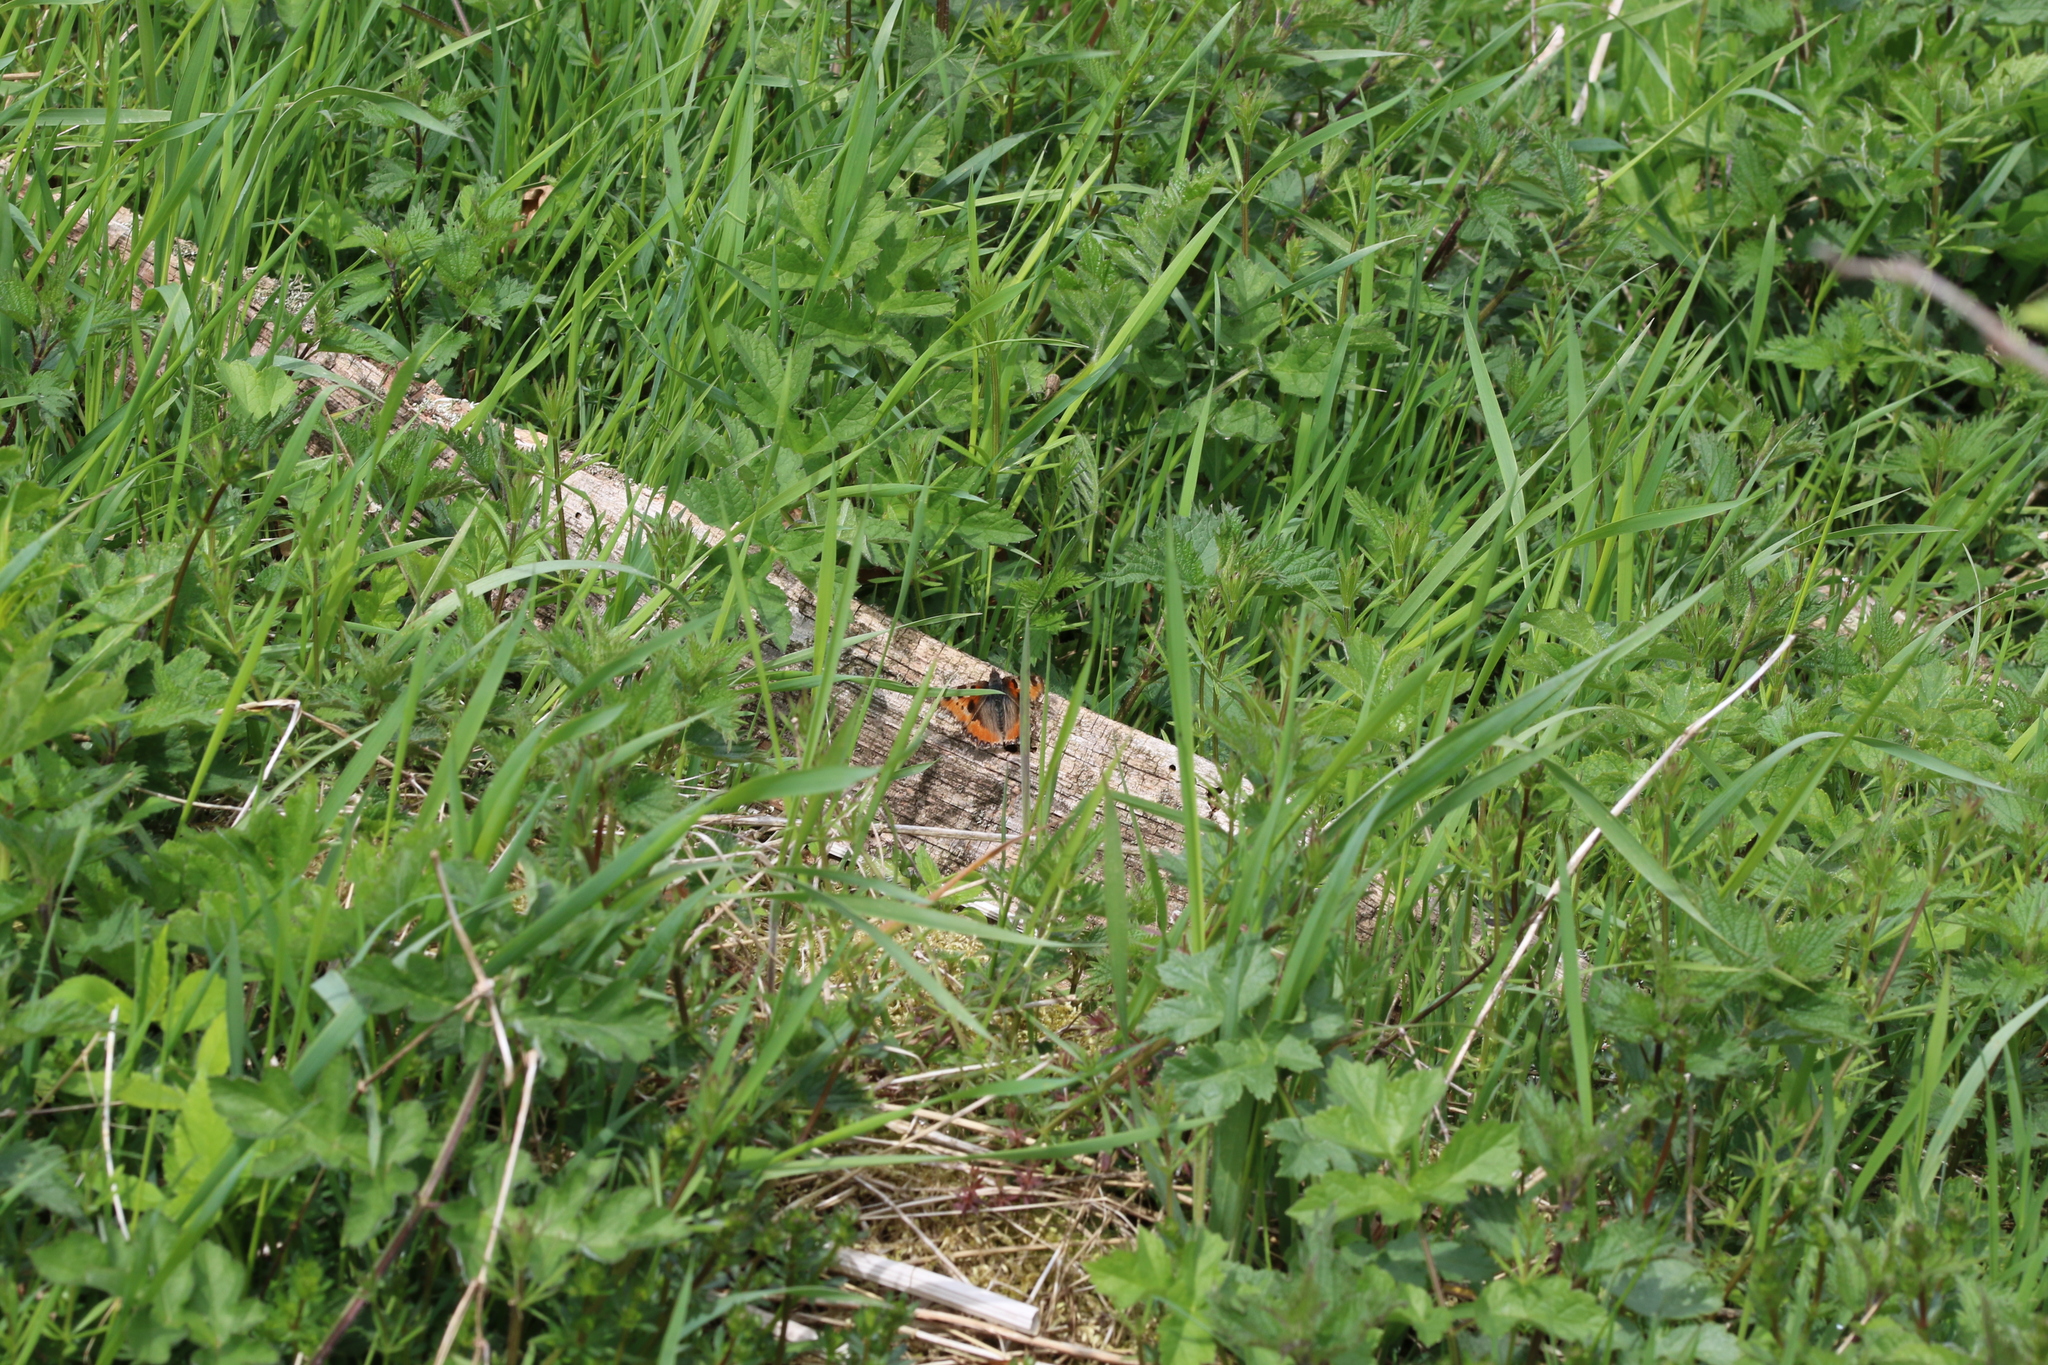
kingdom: Animalia
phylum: Arthropoda
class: Insecta
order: Lepidoptera
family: Nymphalidae
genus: Aglais
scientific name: Aglais urticae
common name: Small tortoiseshell
